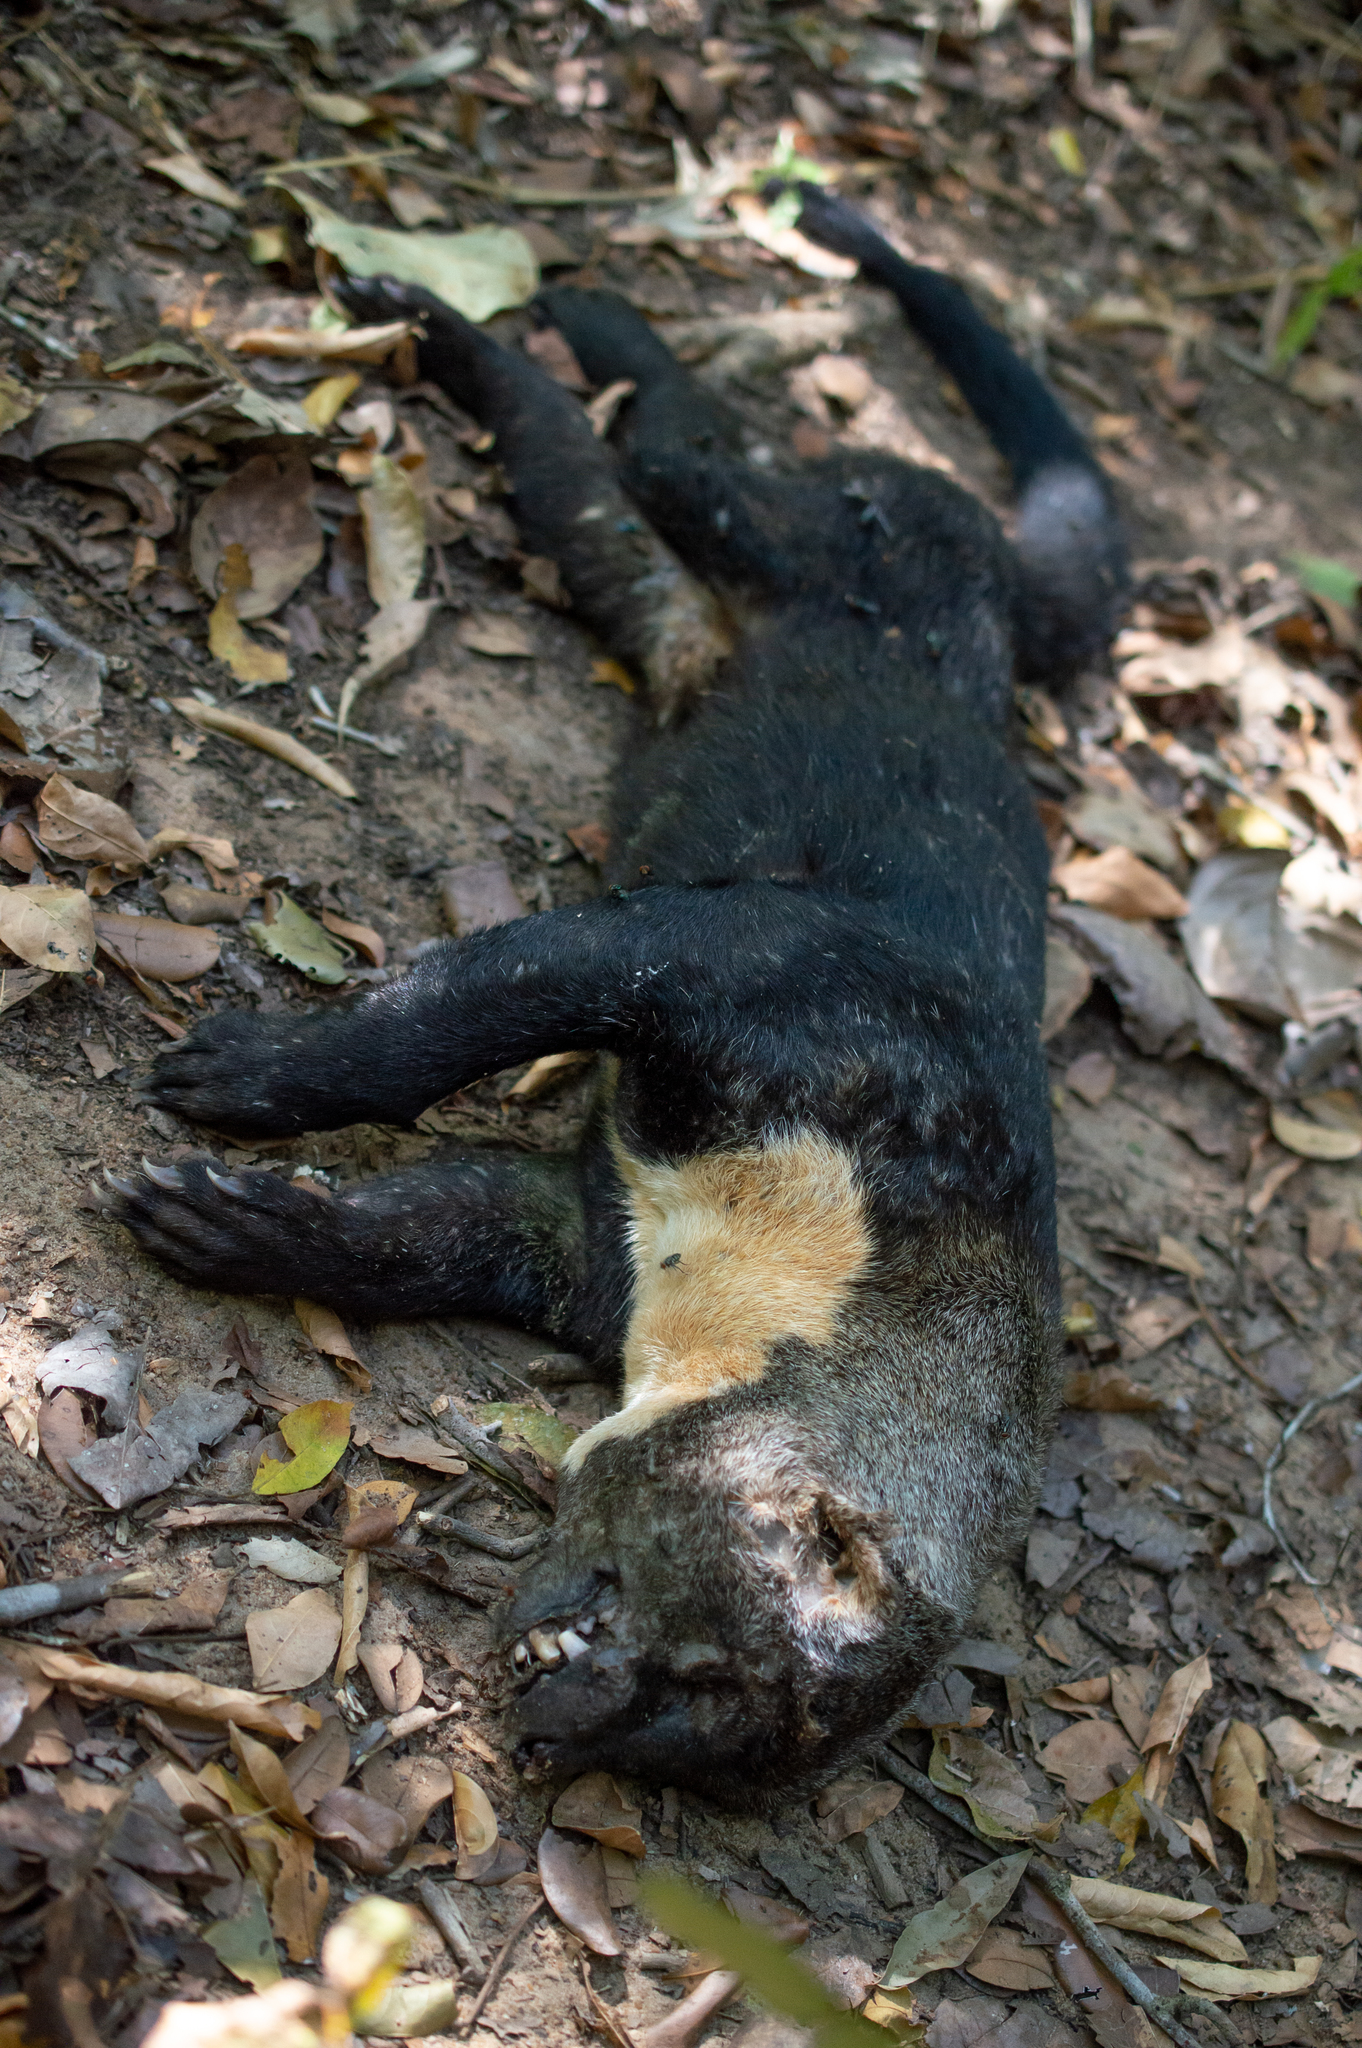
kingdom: Animalia
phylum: Chordata
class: Mammalia
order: Carnivora
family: Mustelidae
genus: Eira
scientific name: Eira barbara
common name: Tayra
